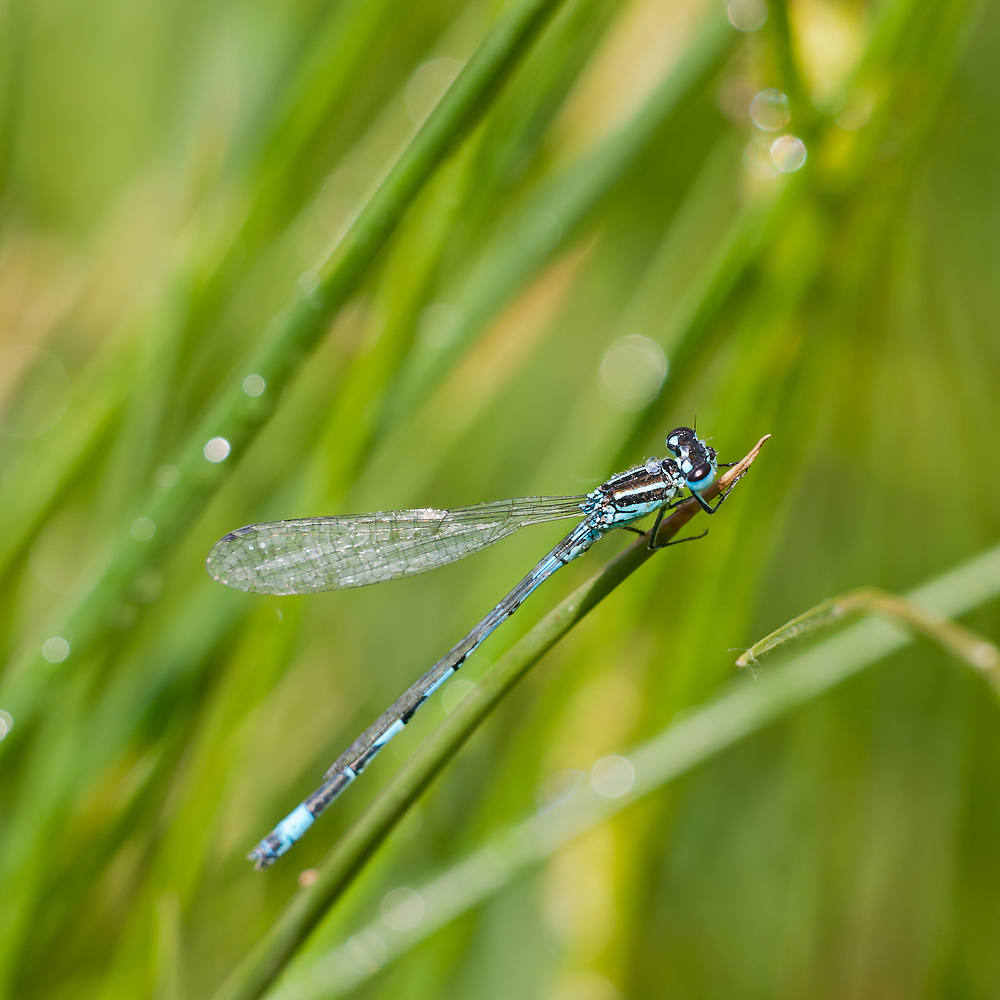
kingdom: Animalia
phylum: Arthropoda
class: Insecta
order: Odonata
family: Coenagrionidae
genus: Coenagrion
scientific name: Coenagrion mercuriale
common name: Southern damselfly
